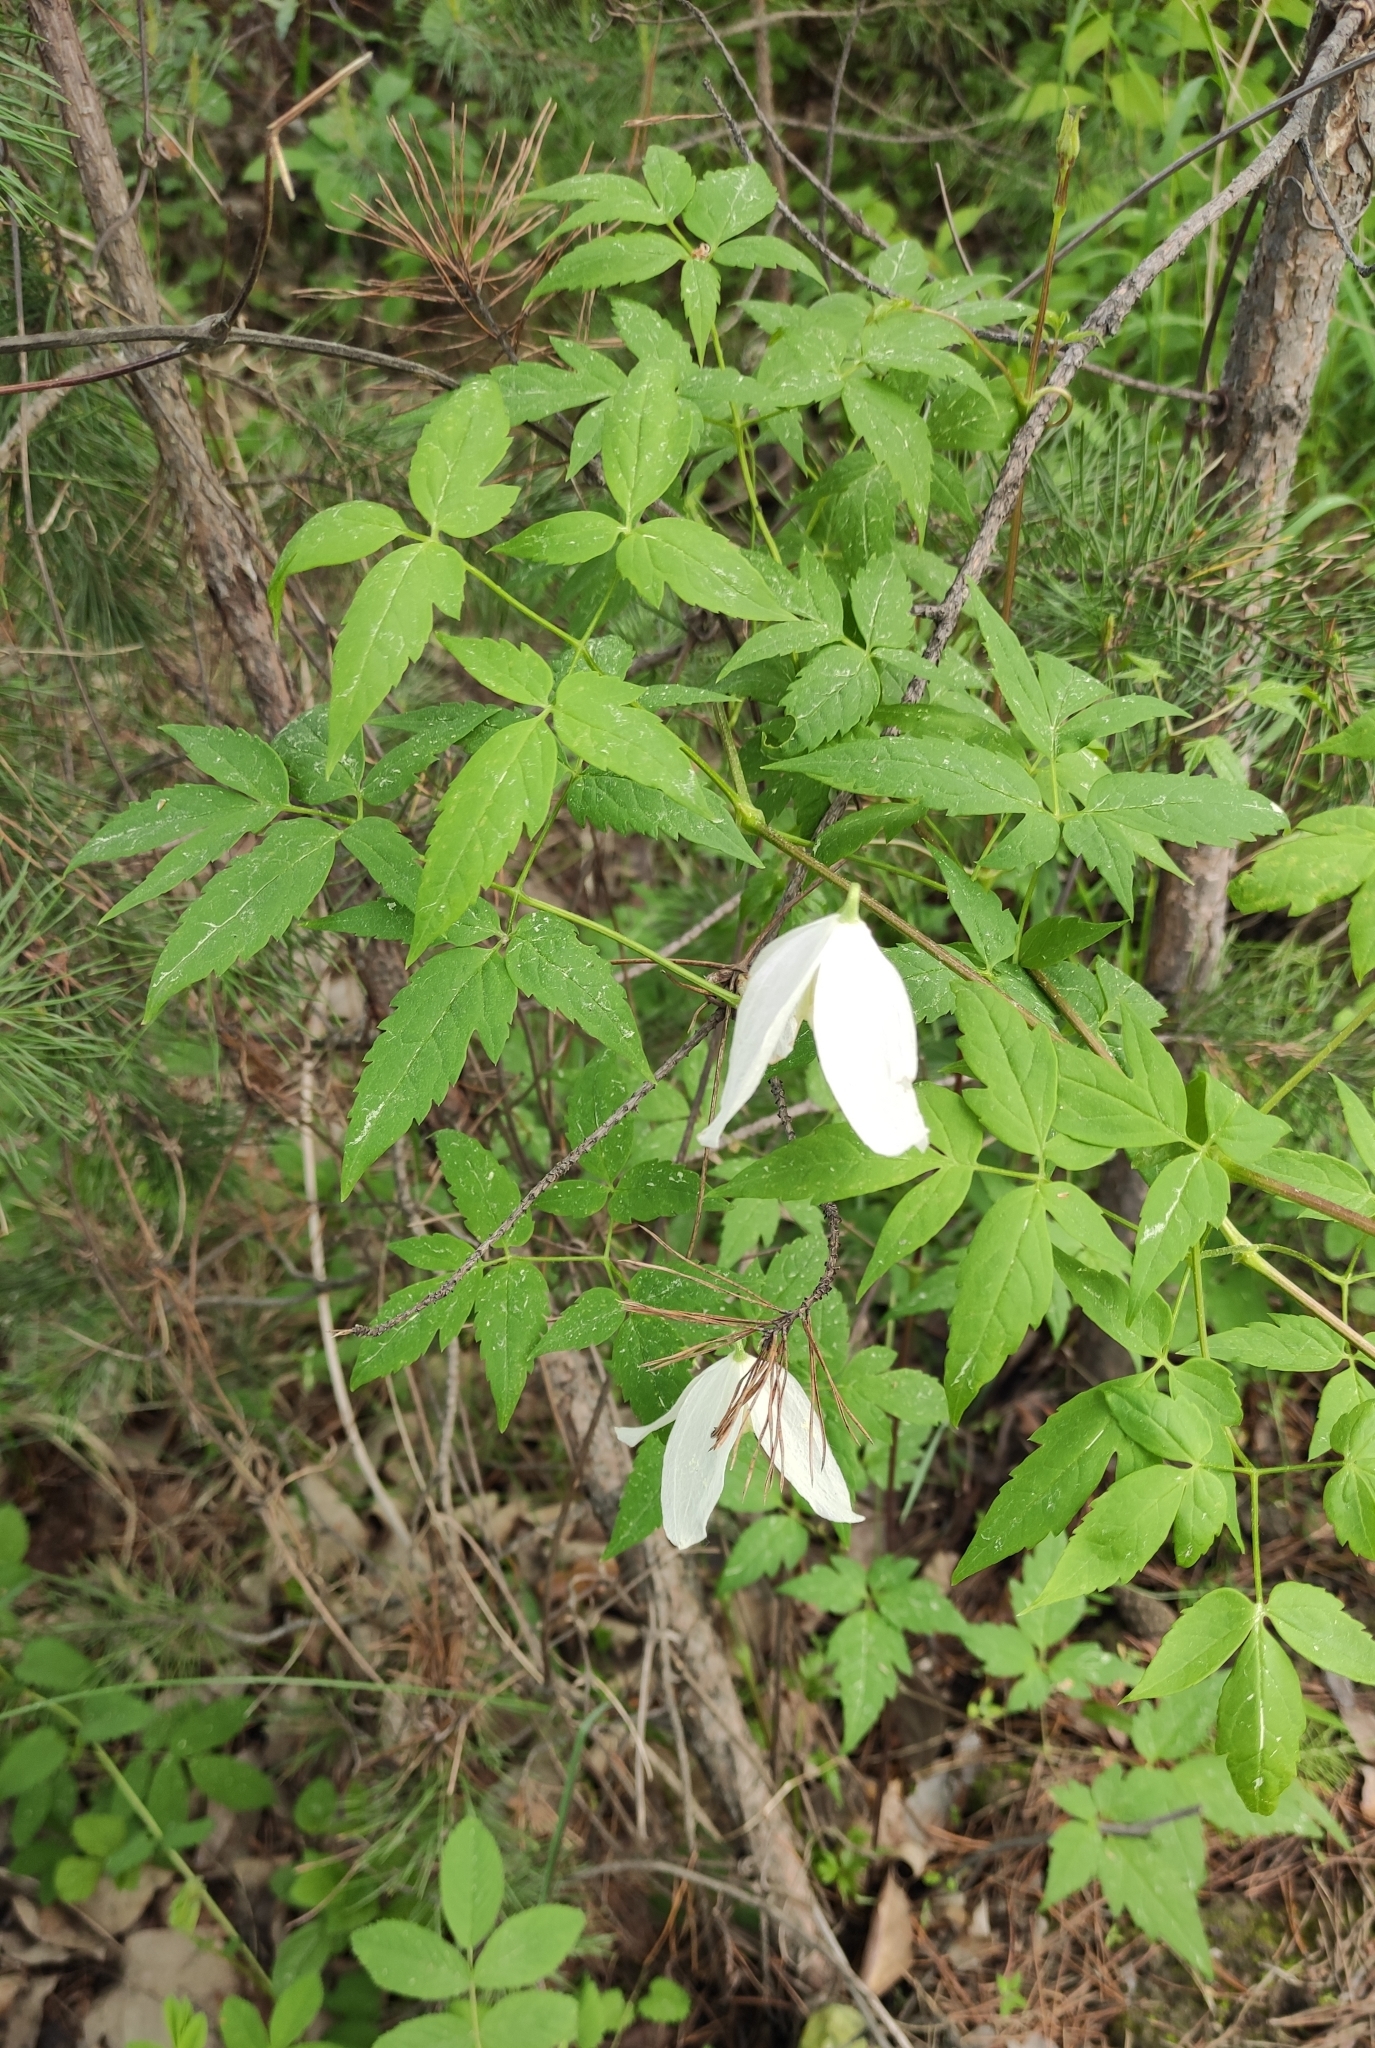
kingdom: Plantae
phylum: Tracheophyta
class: Magnoliopsida
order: Ranunculales
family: Ranunculaceae
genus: Clematis
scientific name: Clematis sibirica
